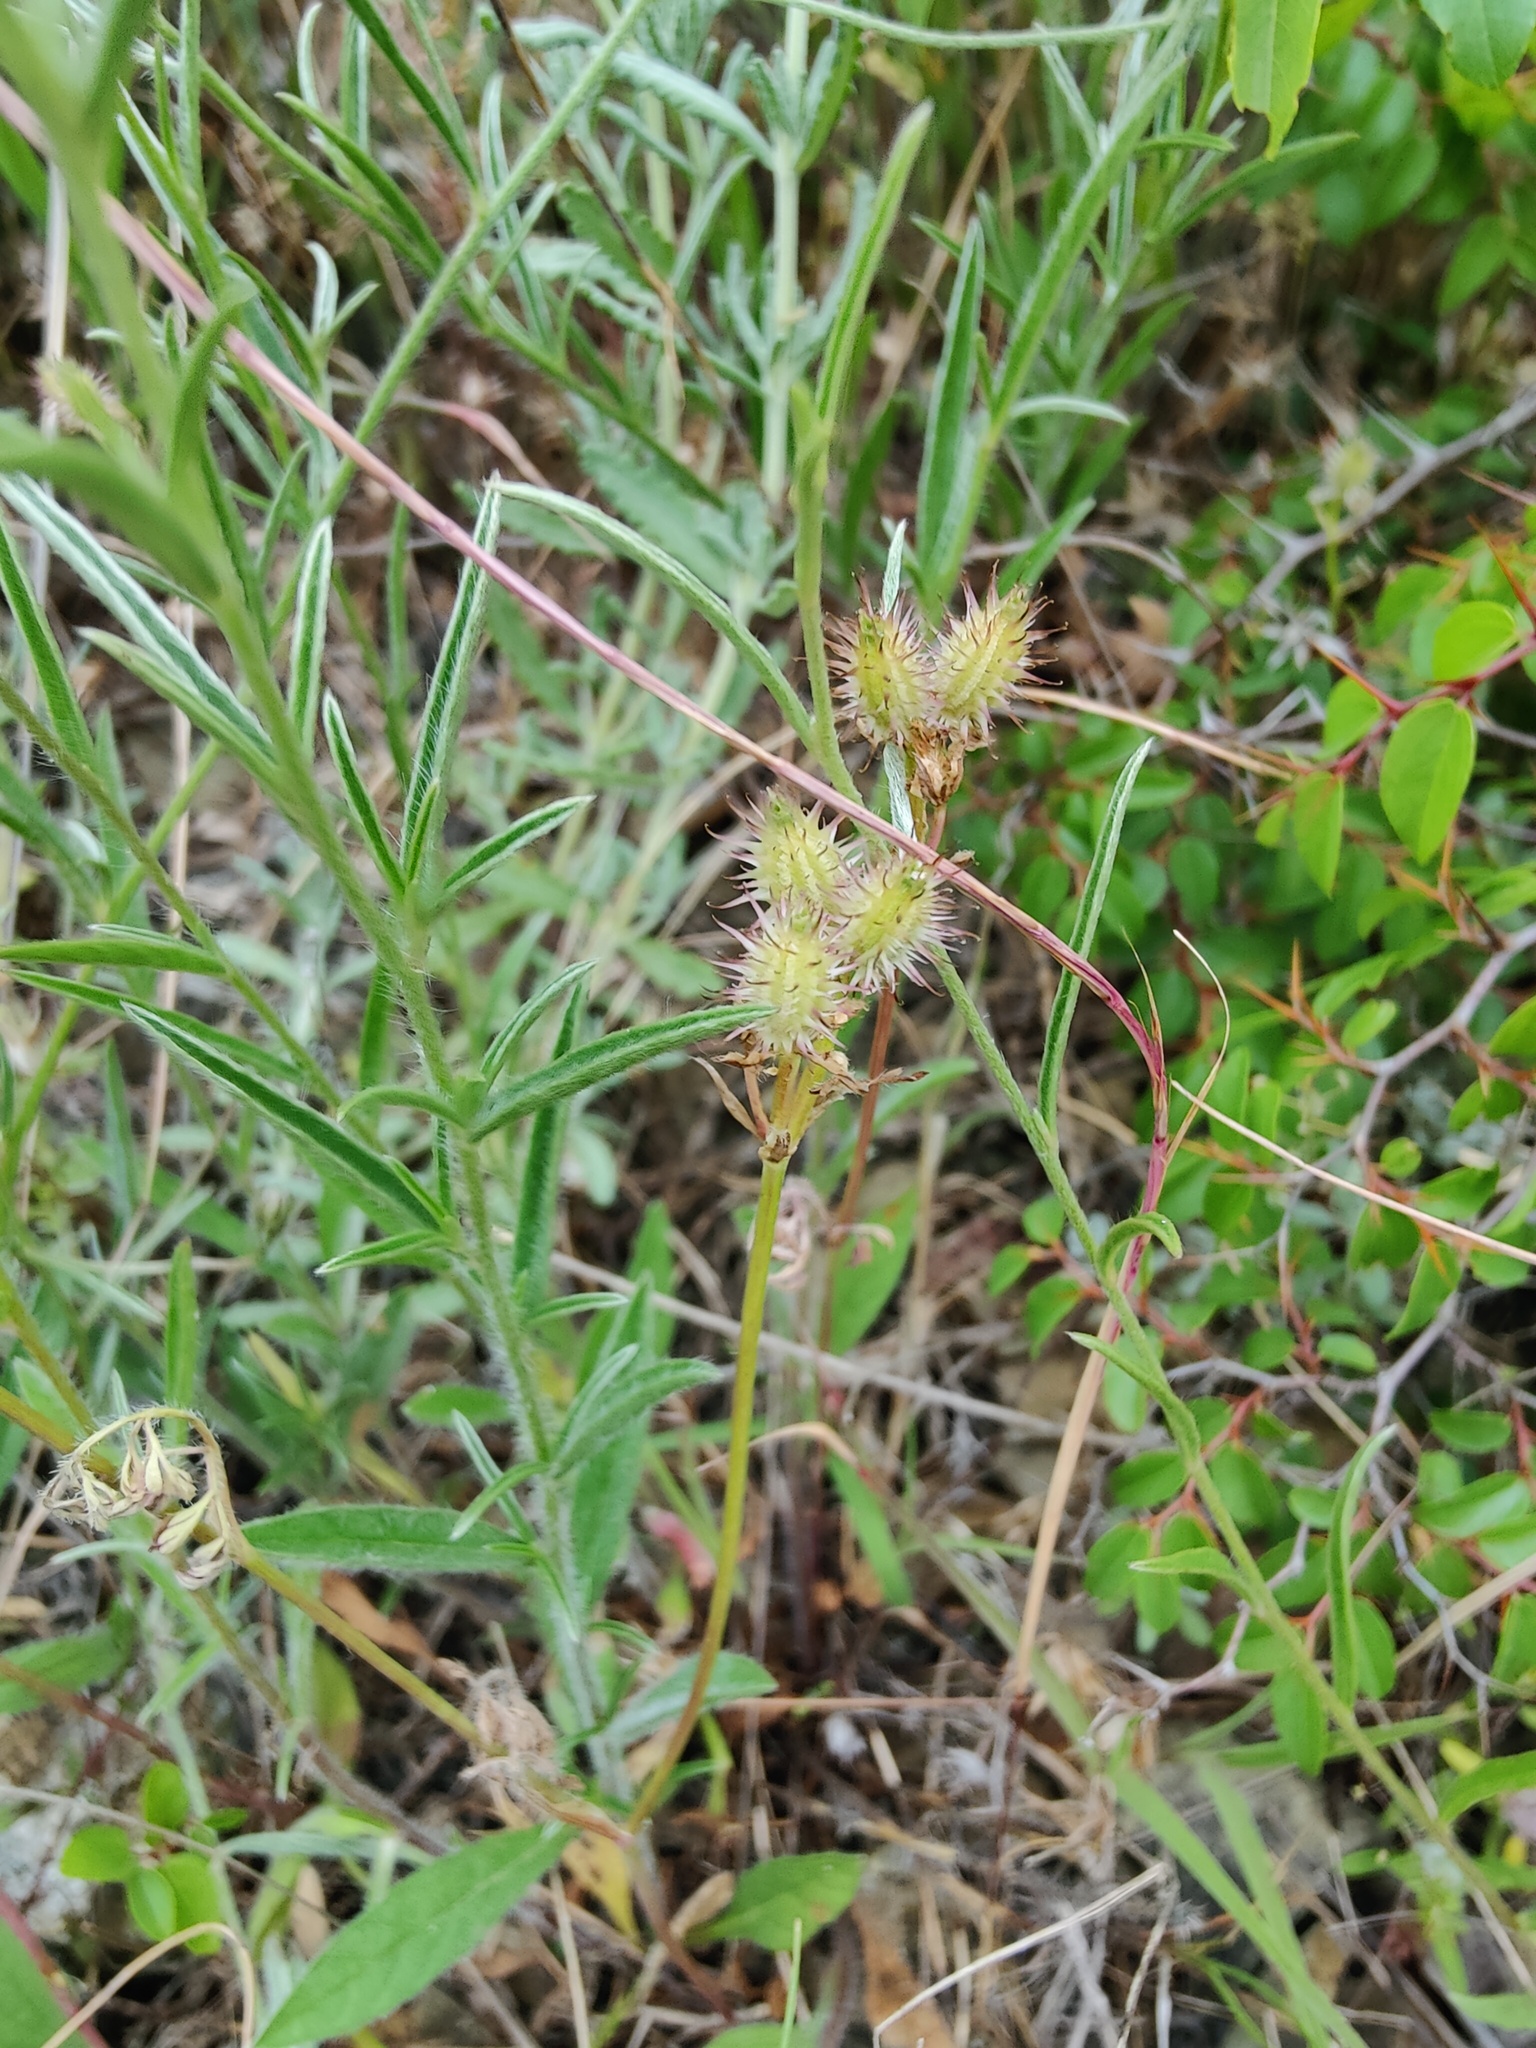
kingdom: Plantae
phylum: Tracheophyta
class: Magnoliopsida
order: Apiales
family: Apiaceae
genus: Orlaya
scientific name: Orlaya daucoides
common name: Flat-fruit orlaya
